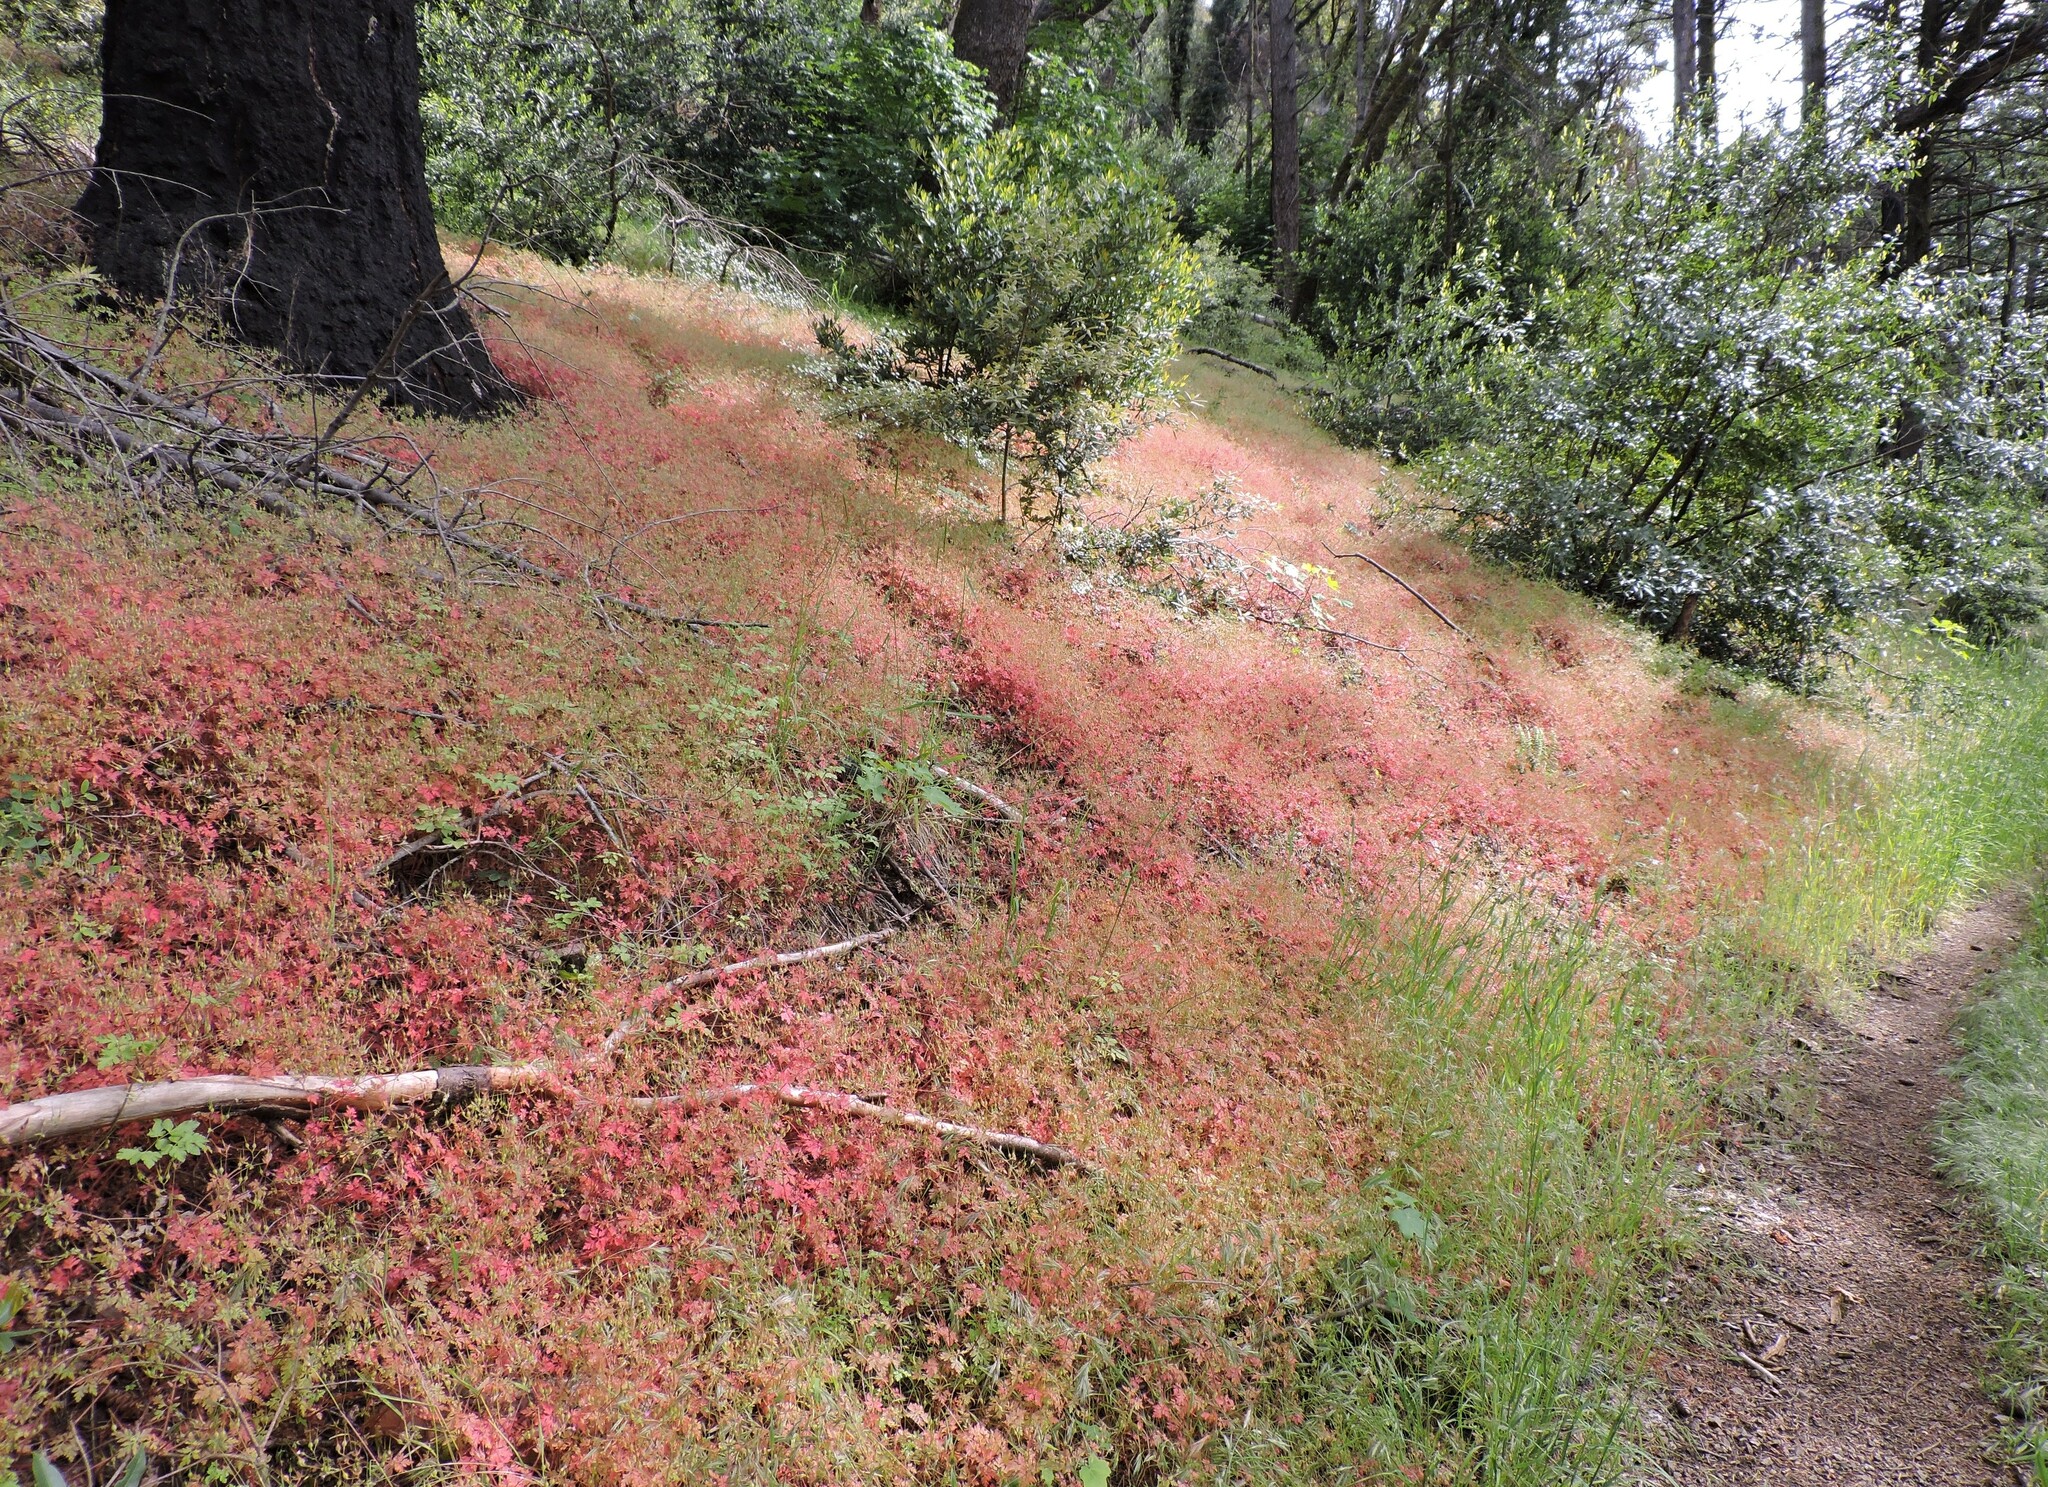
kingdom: Plantae
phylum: Tracheophyta
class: Magnoliopsida
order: Geraniales
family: Geraniaceae
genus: Geranium
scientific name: Geranium purpureum
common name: Little-robin
